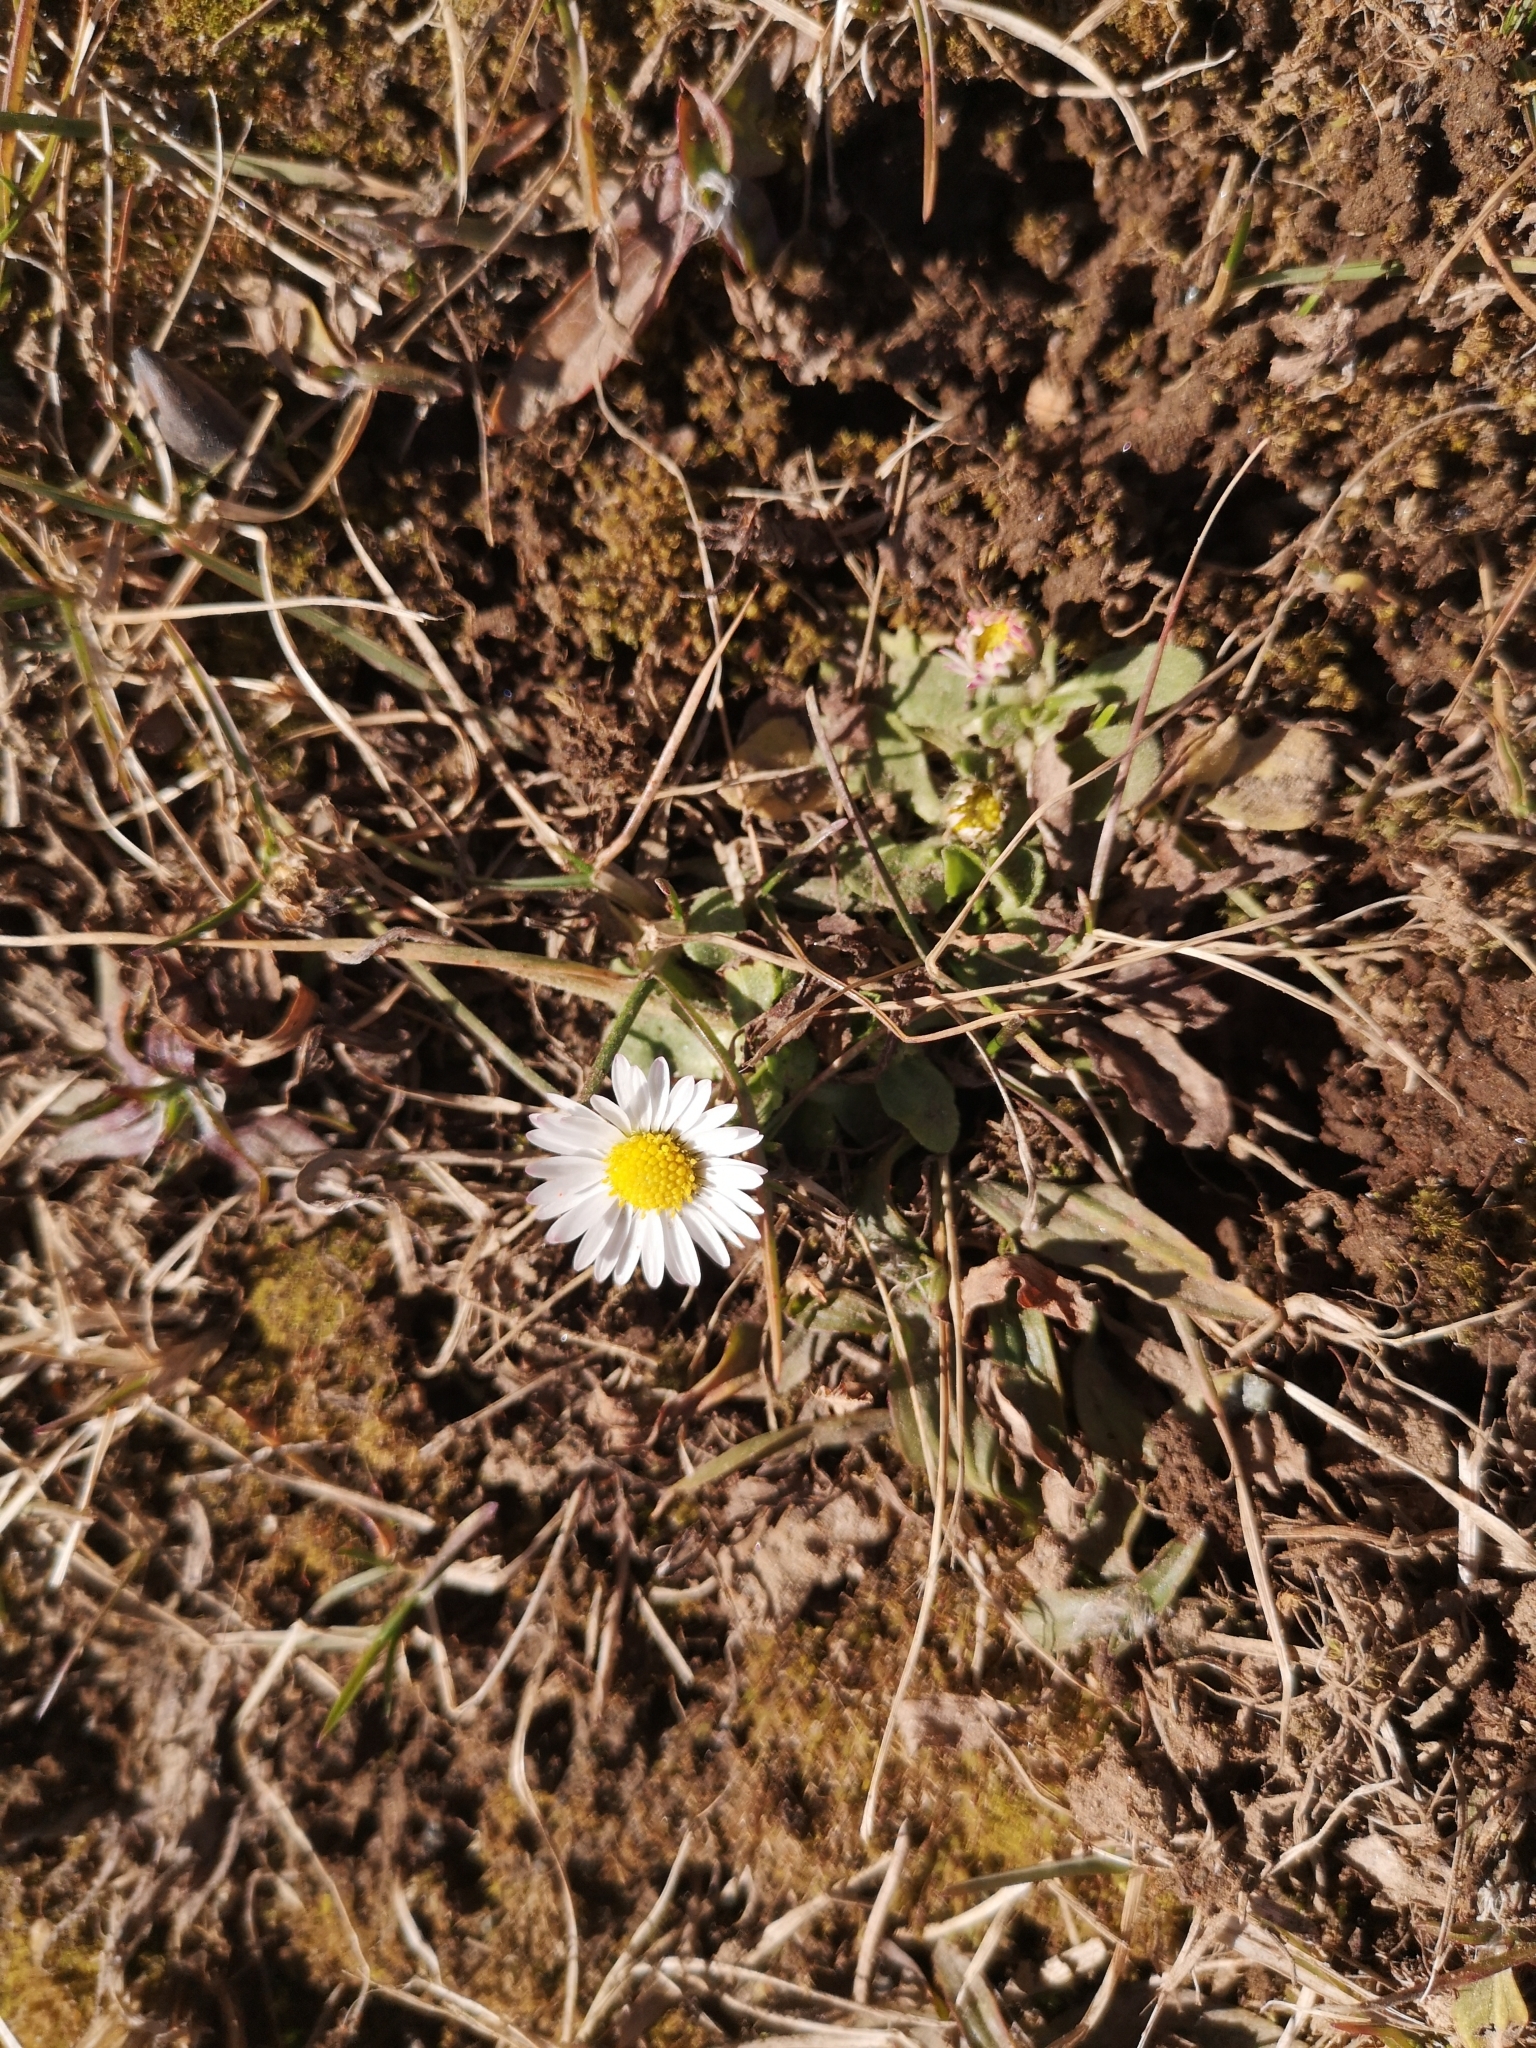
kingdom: Plantae
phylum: Tracheophyta
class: Magnoliopsida
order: Asterales
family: Asteraceae
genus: Bellis
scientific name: Bellis perennis
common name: Lawndaisy
